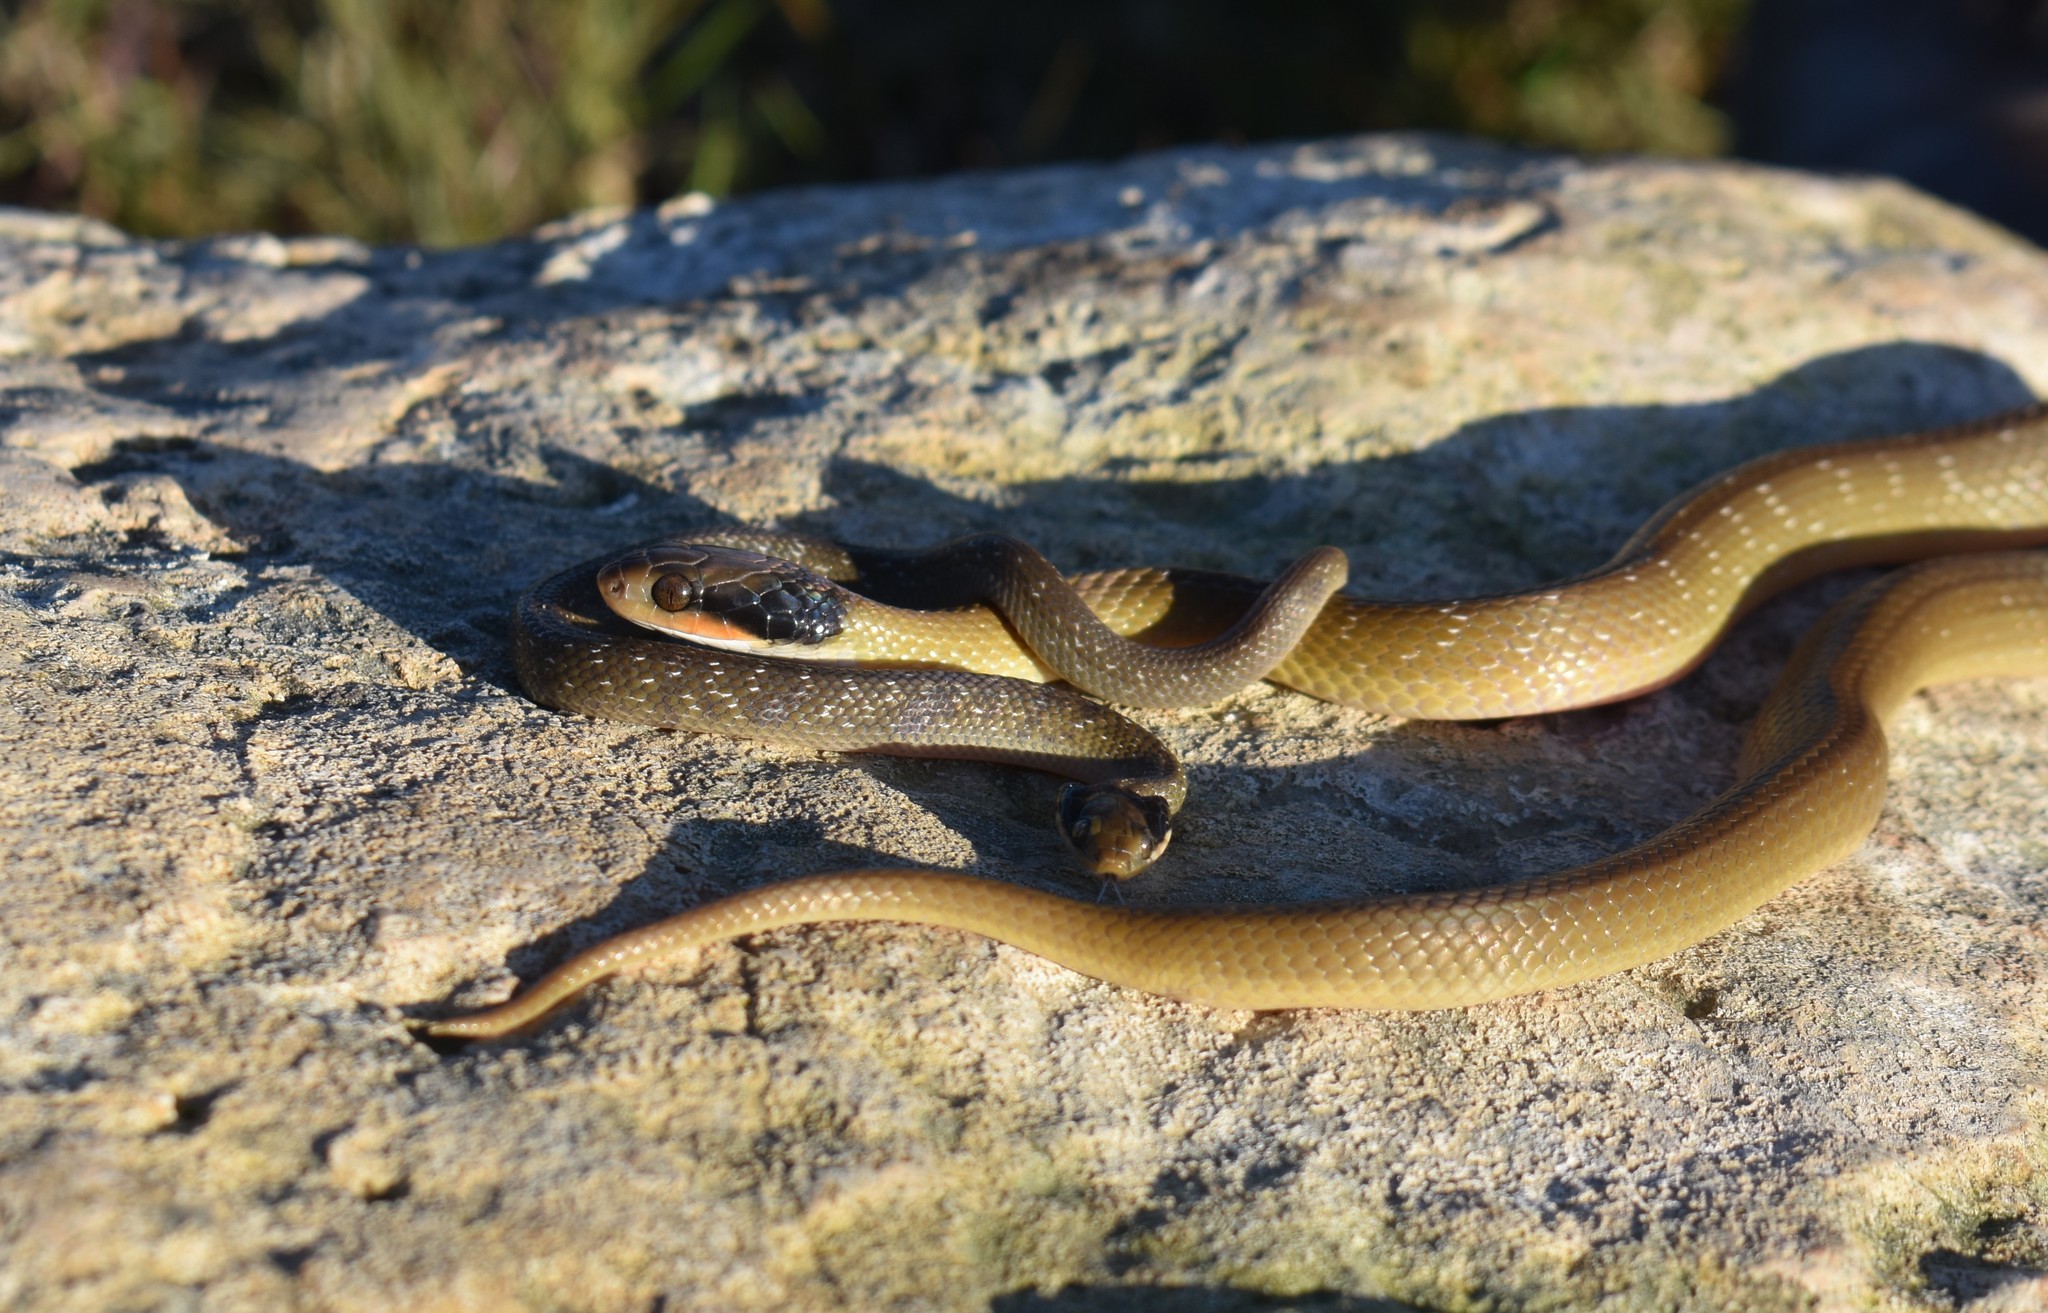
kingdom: Animalia
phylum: Chordata
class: Squamata
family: Colubridae
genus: Crotaphopeltis
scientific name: Crotaphopeltis hotamboeia
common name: Red-lipped snake
